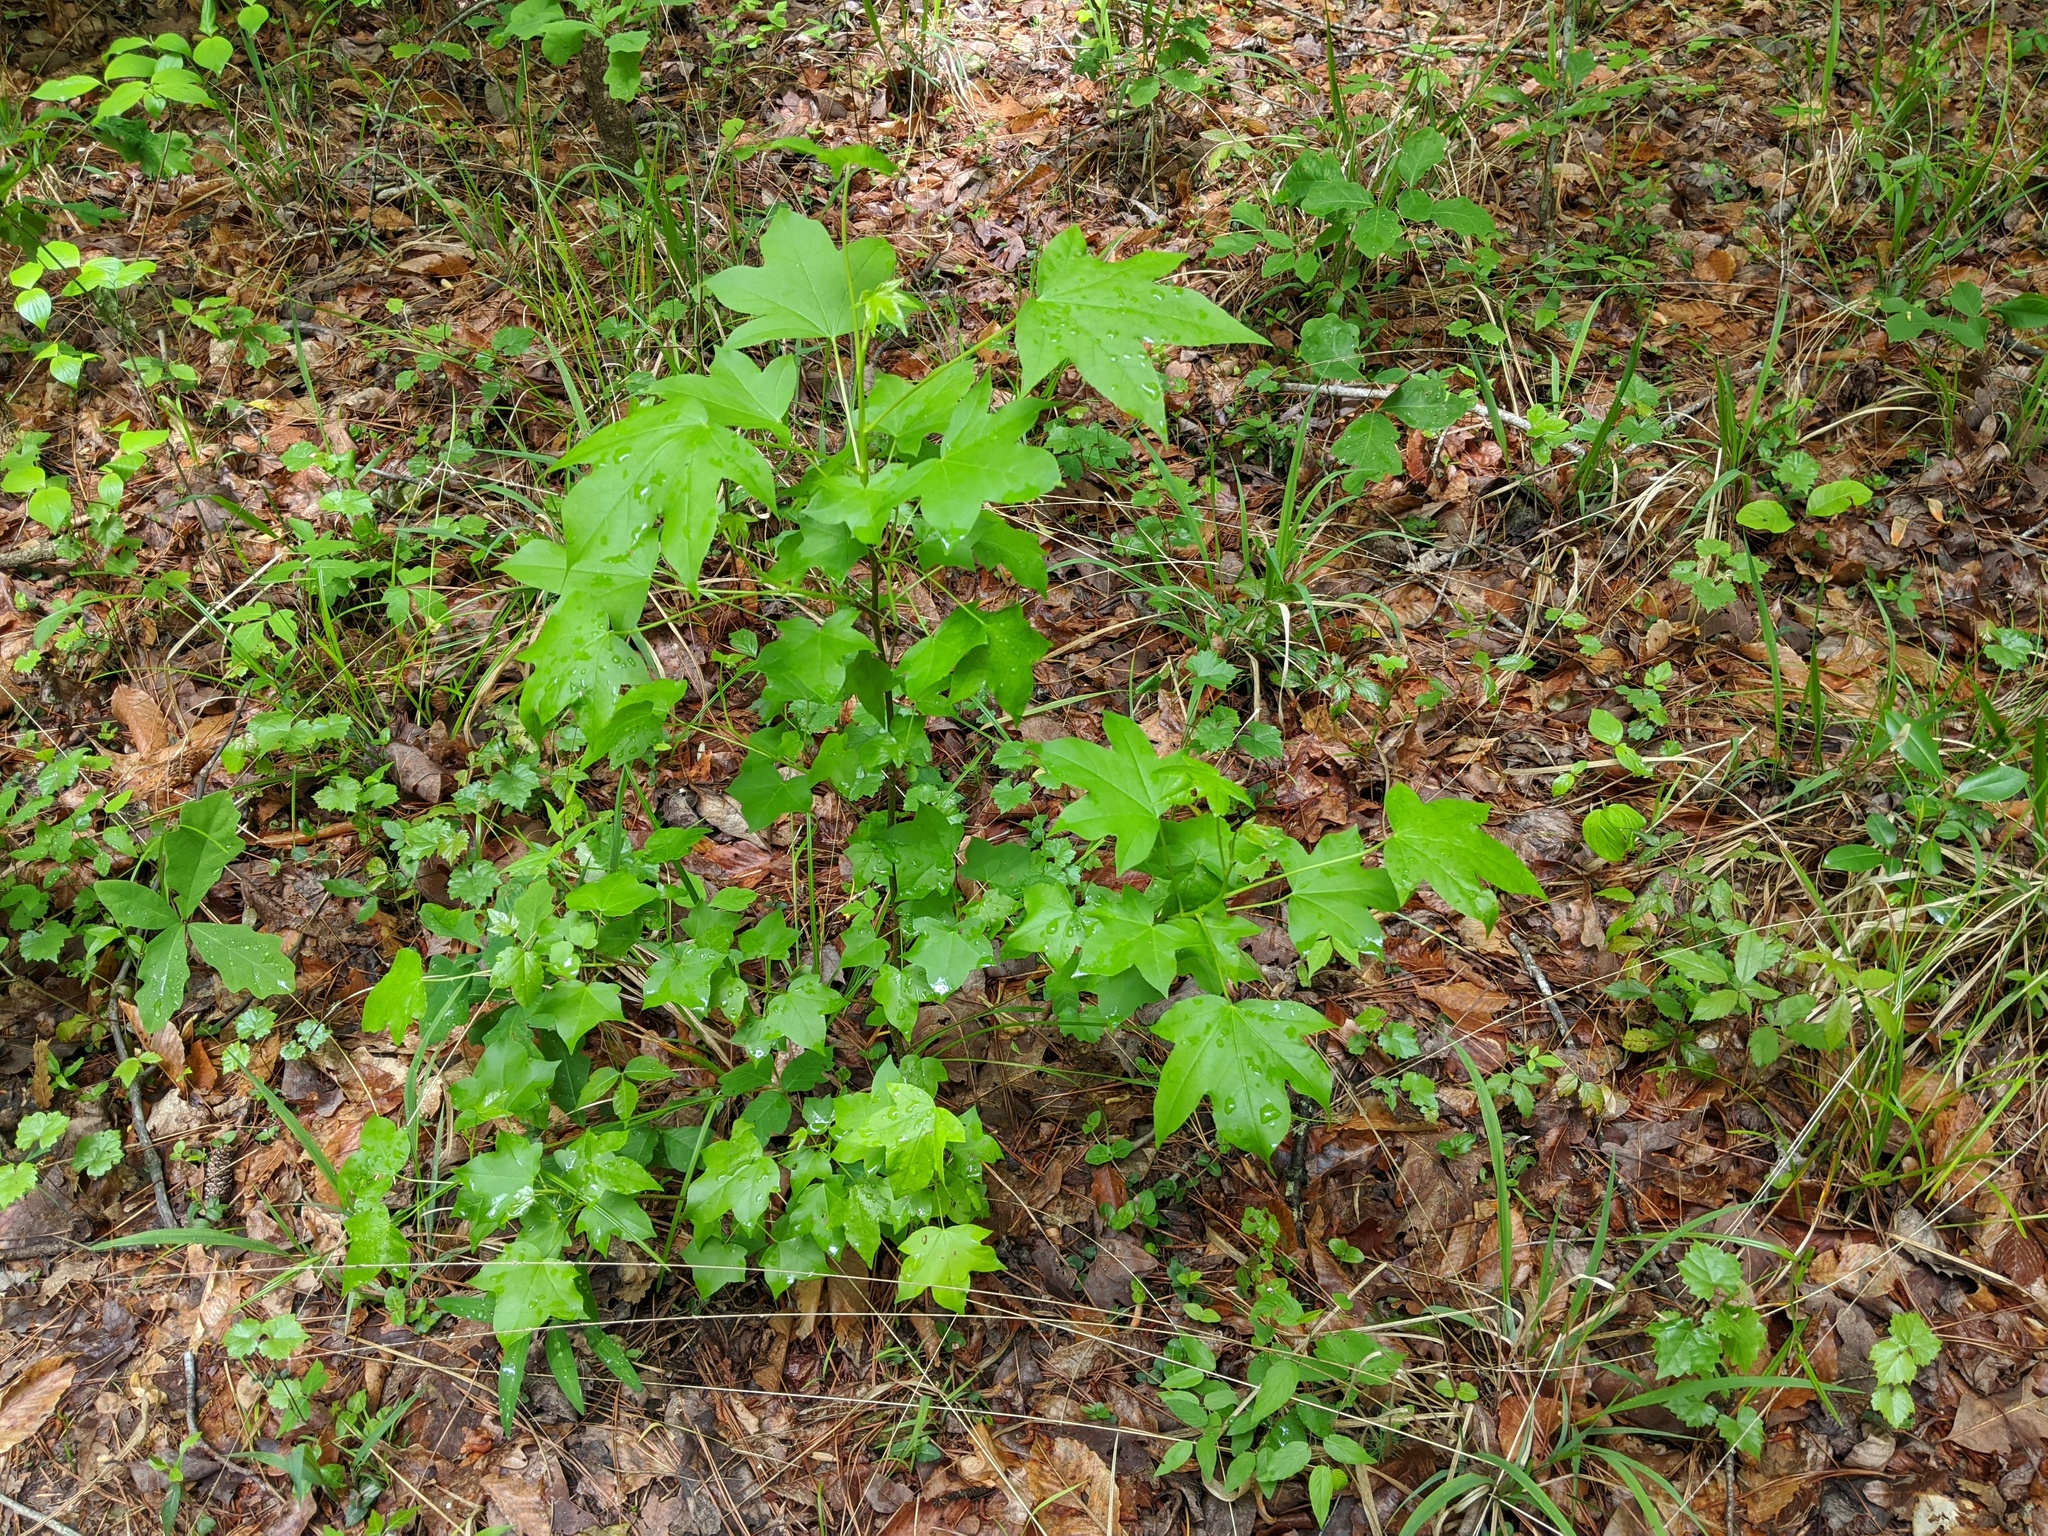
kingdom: Plantae
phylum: Tracheophyta
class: Magnoliopsida
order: Saxifragales
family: Altingiaceae
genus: Liquidambar
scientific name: Liquidambar styraciflua
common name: Sweet gum
